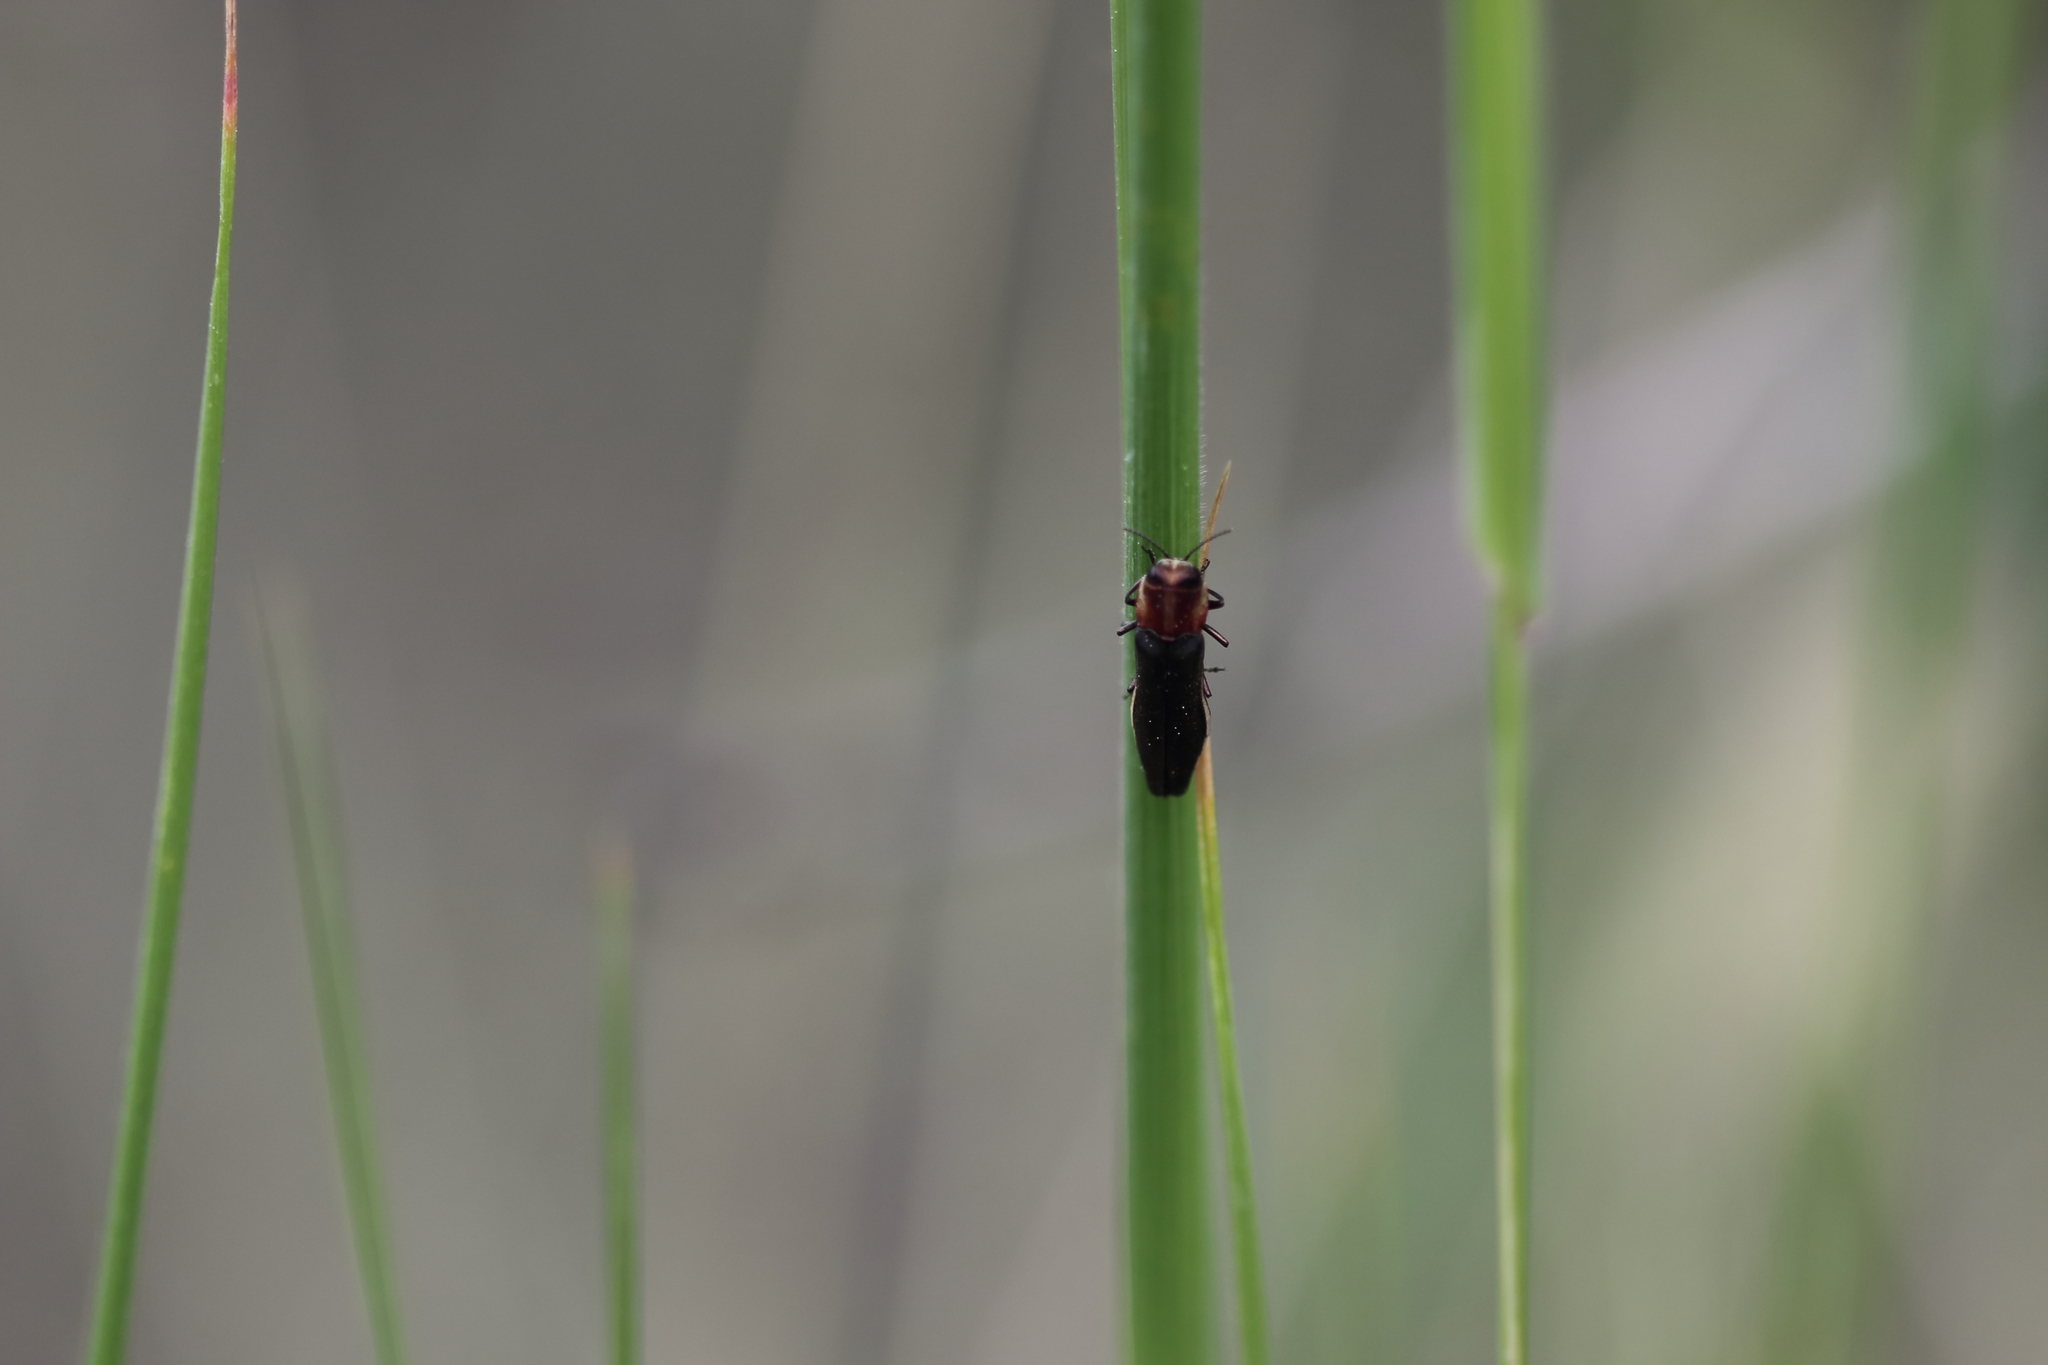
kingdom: Animalia
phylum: Arthropoda
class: Insecta
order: Coleoptera
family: Buprestidae
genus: Agrilus
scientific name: Agrilus vittaticollis
